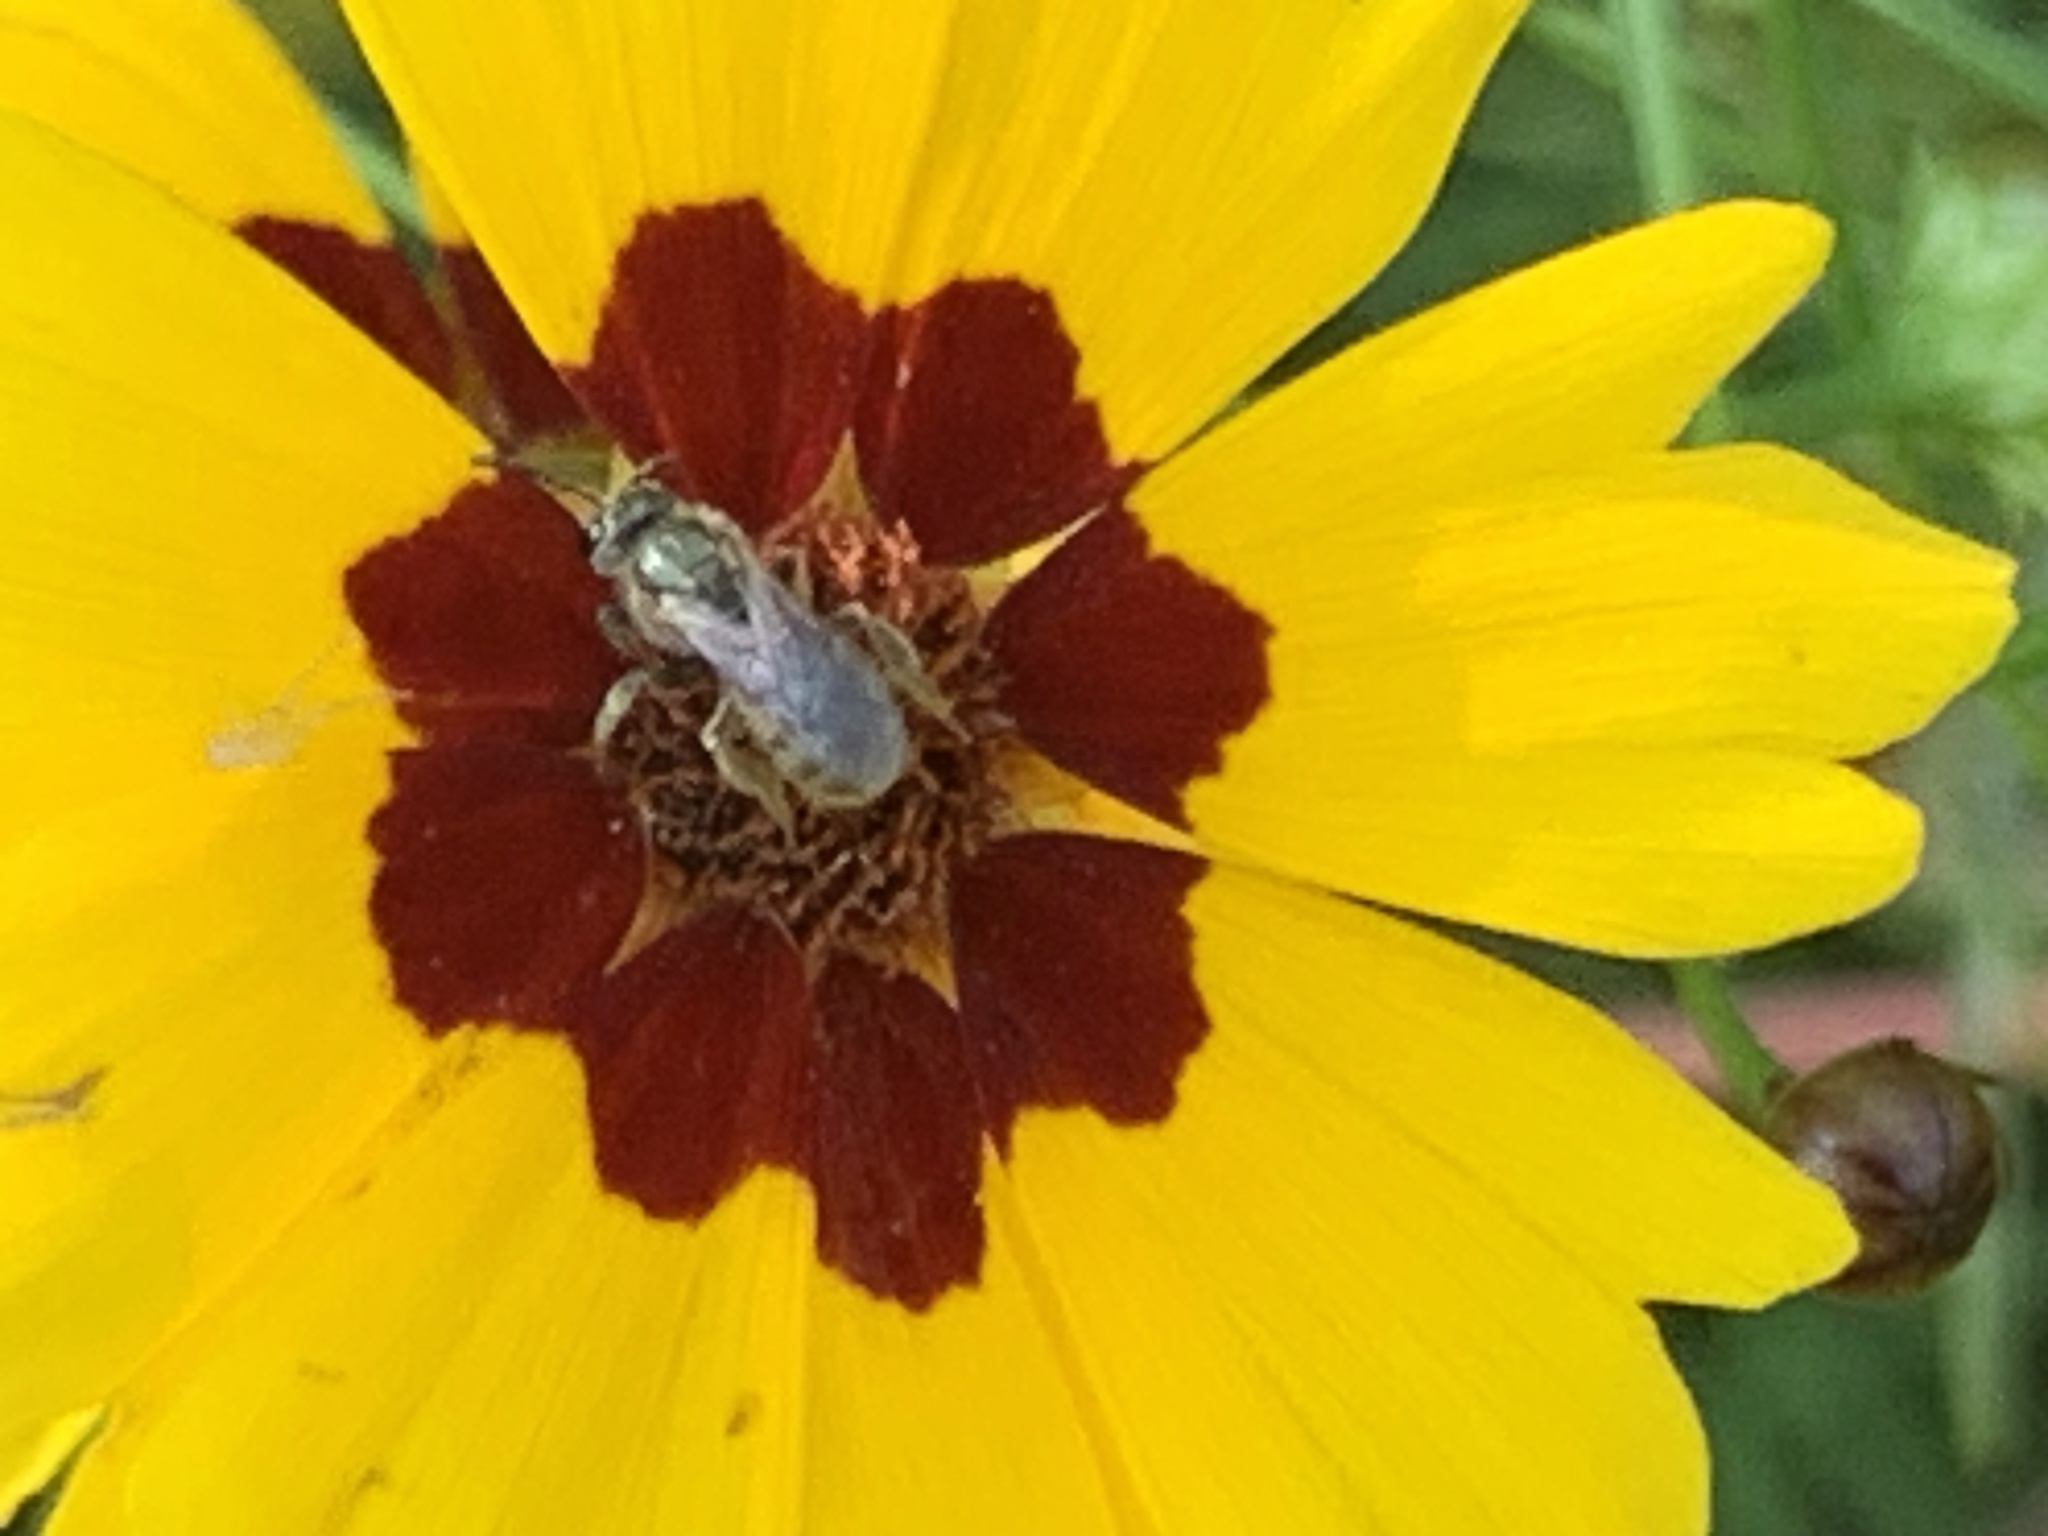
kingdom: Animalia
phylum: Arthropoda
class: Insecta
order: Hymenoptera
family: Halictidae
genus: Lasioglossum
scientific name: Lasioglossum
